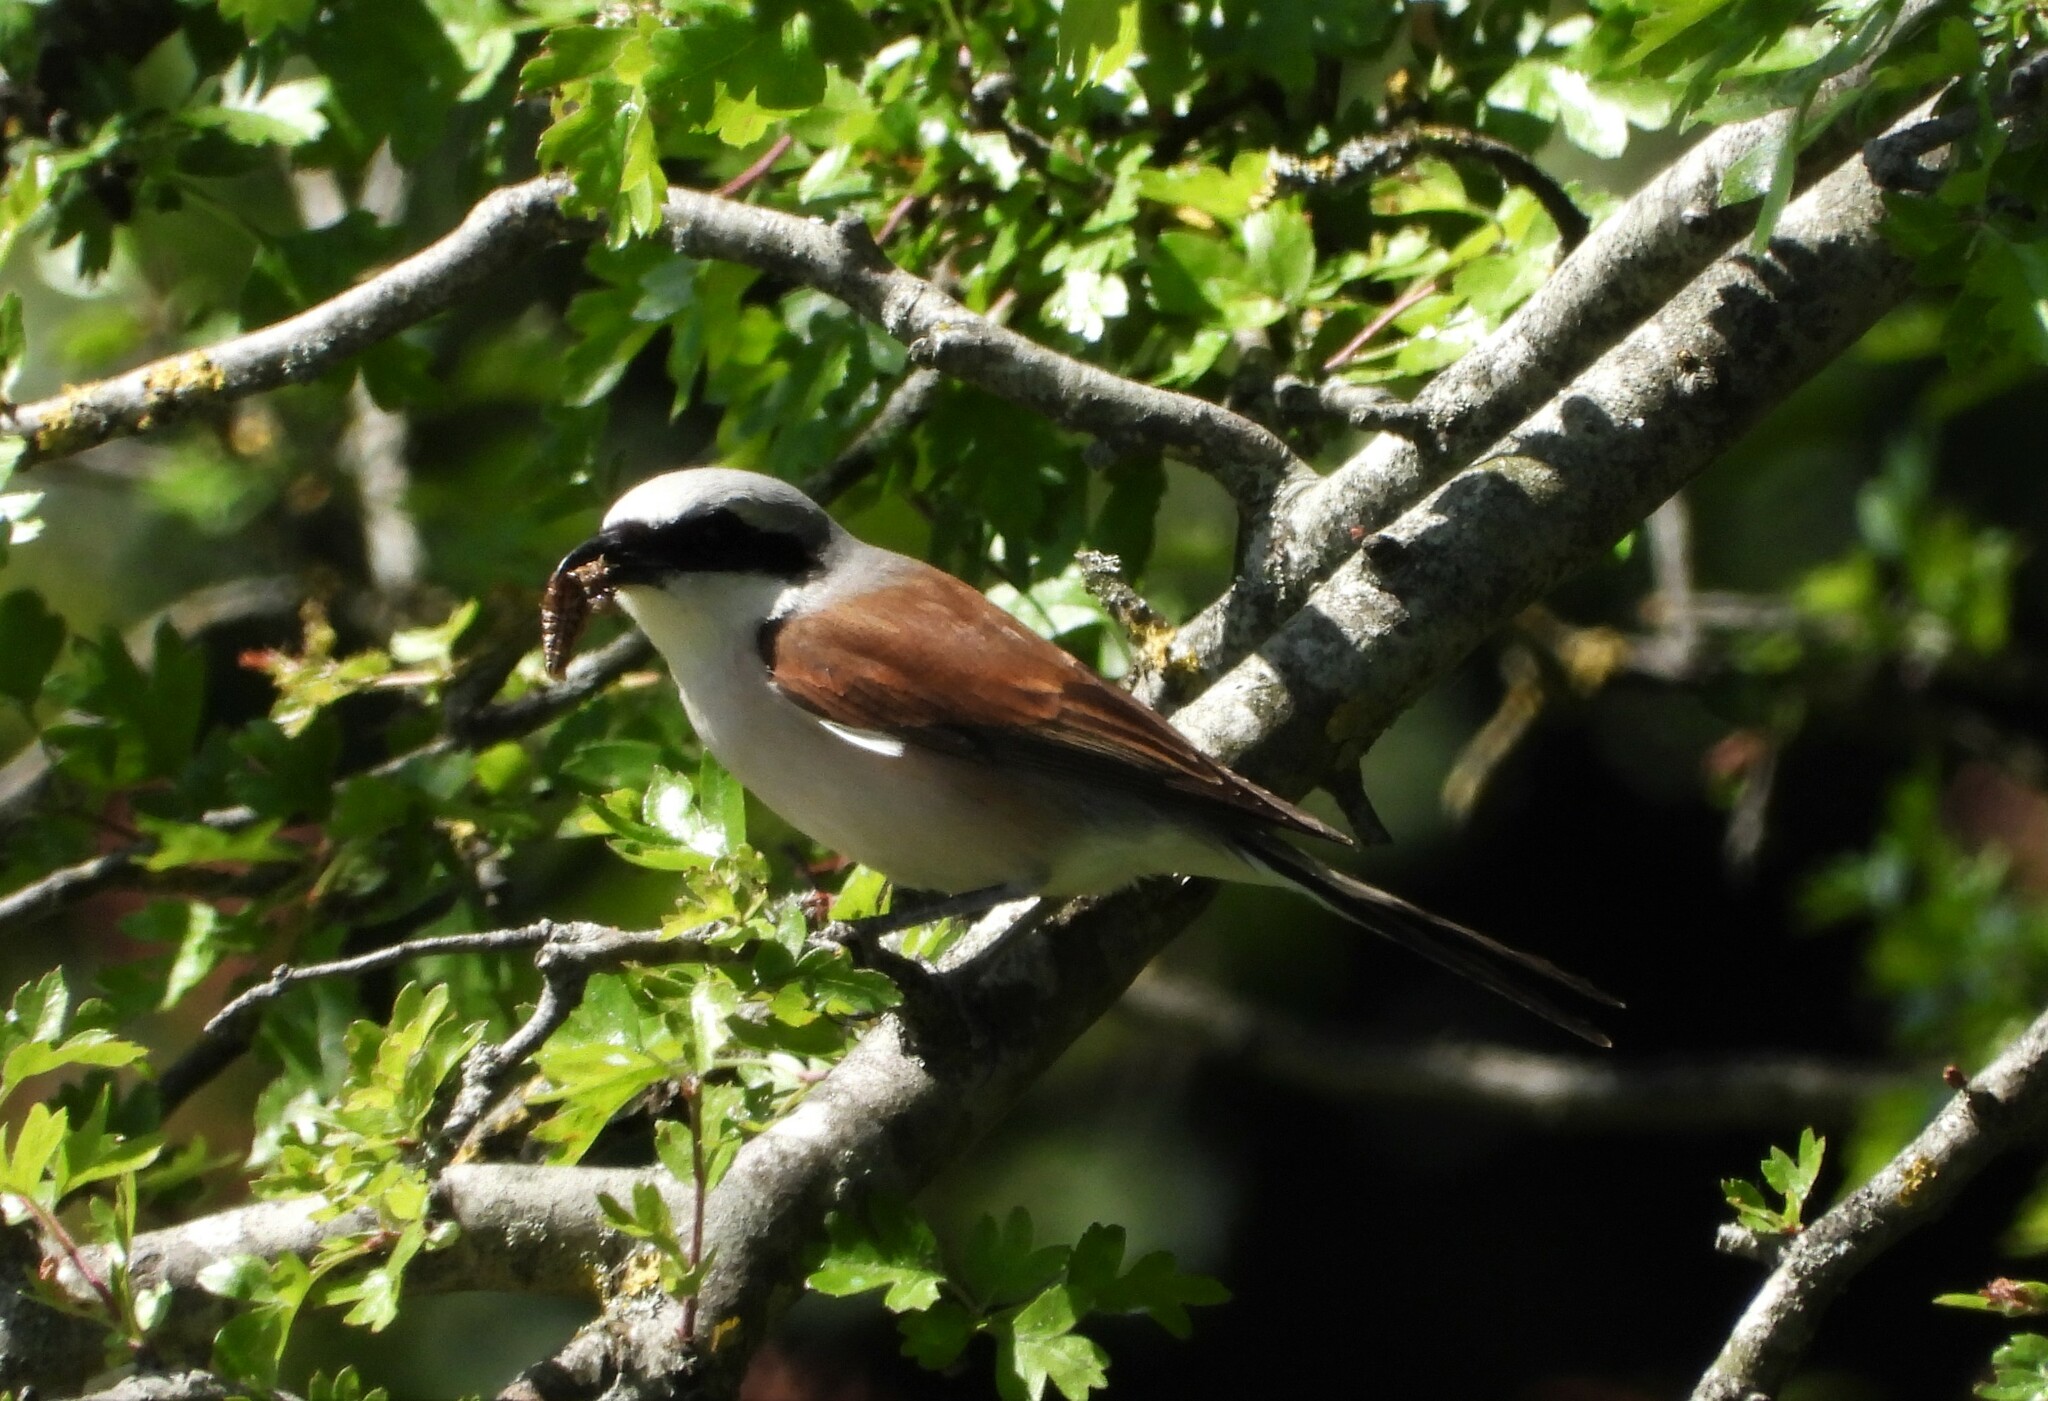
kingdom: Animalia
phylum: Chordata
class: Aves
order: Passeriformes
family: Laniidae
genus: Lanius
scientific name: Lanius collurio
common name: Red-backed shrike
